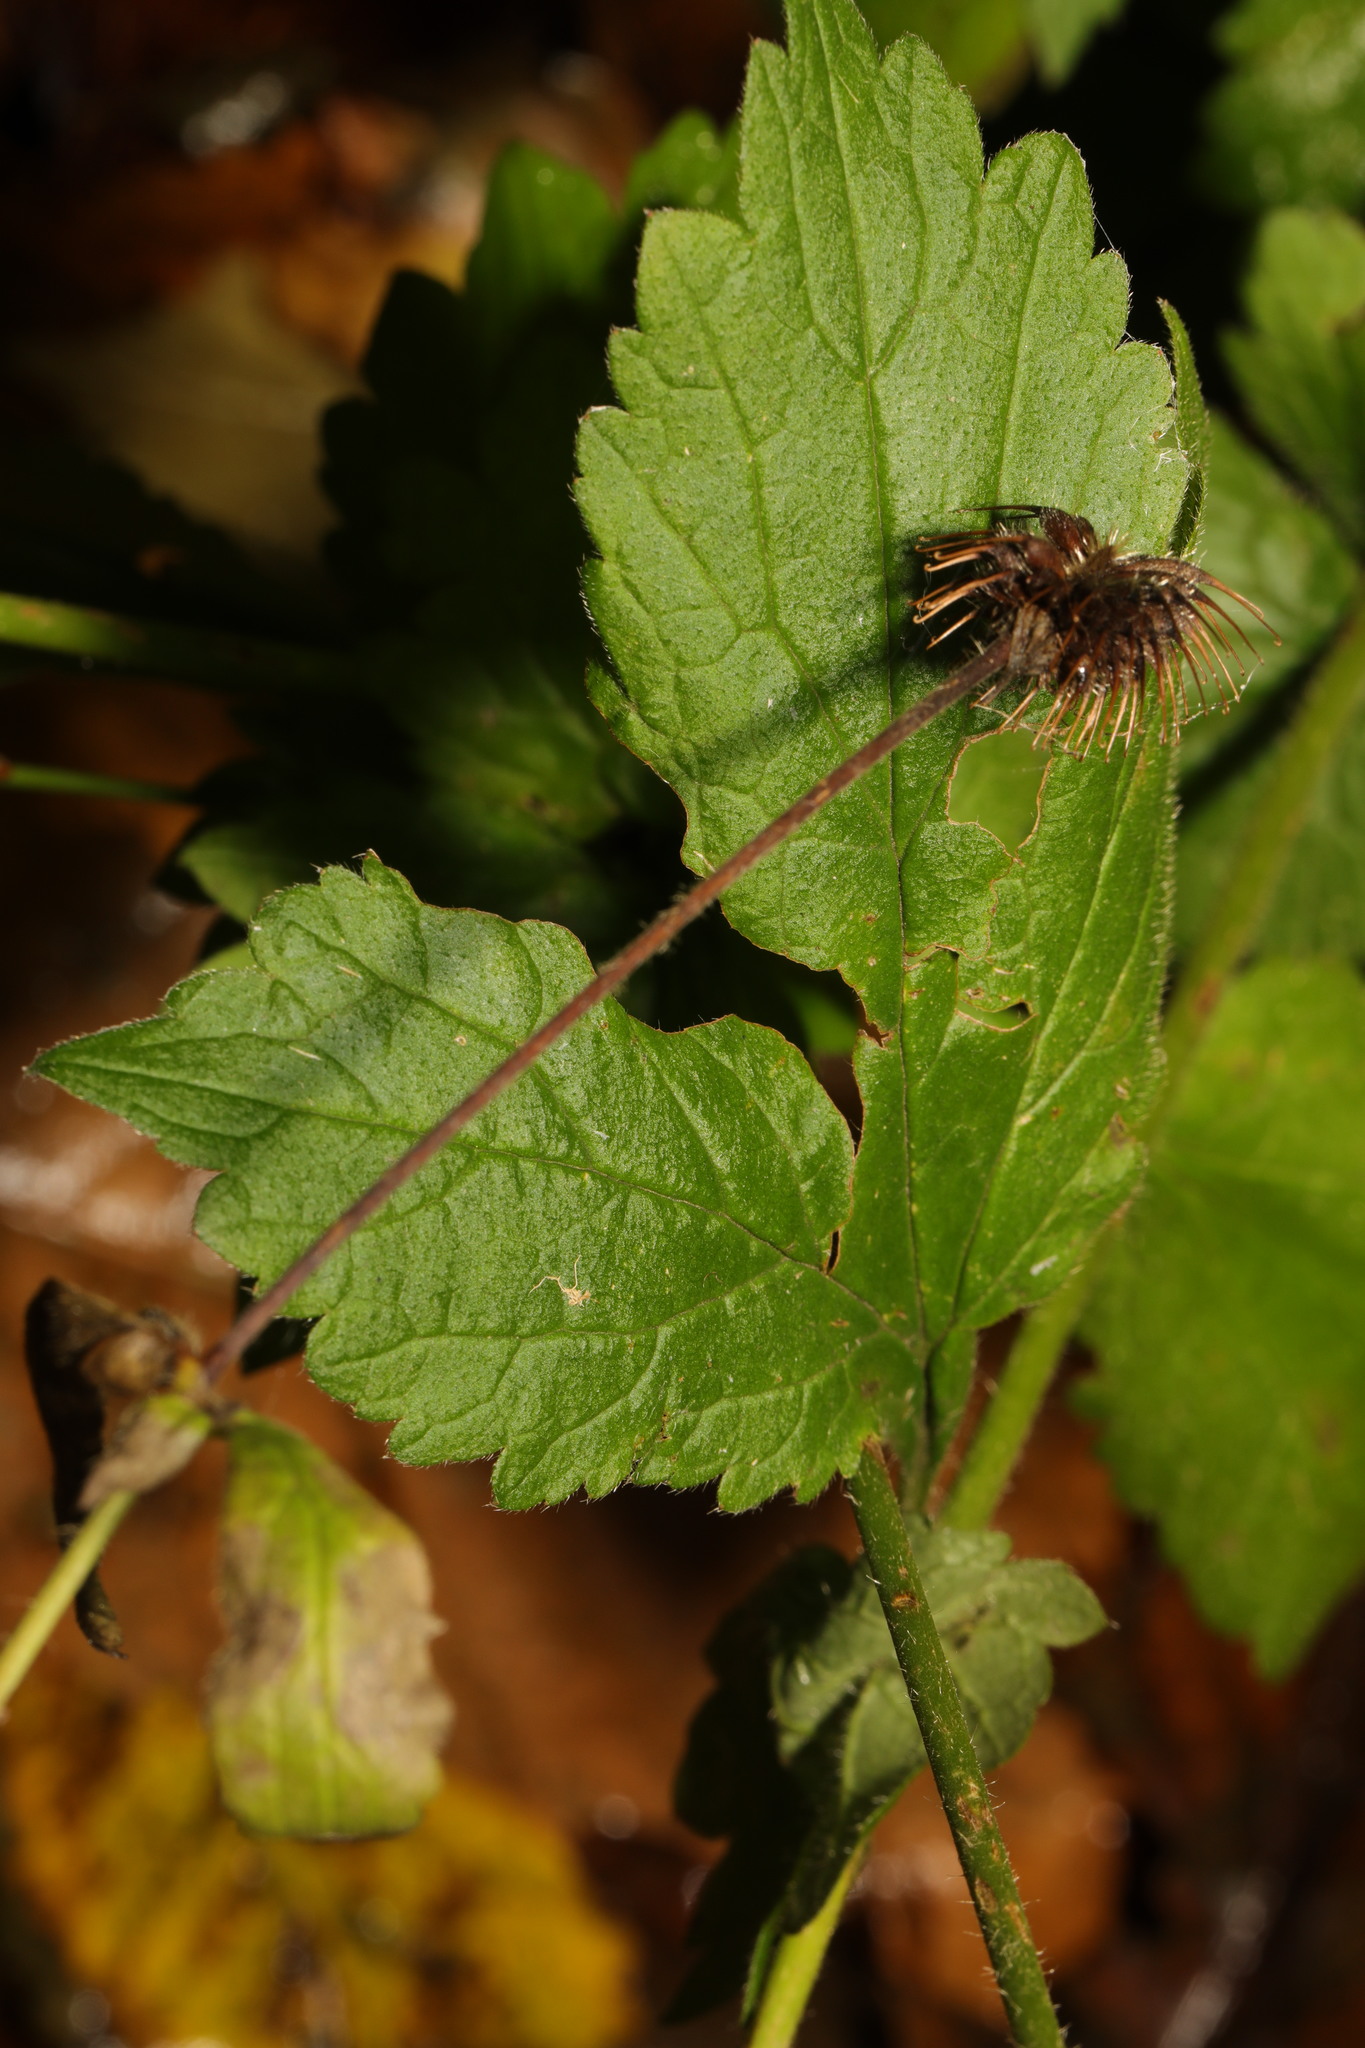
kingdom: Plantae
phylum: Tracheophyta
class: Magnoliopsida
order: Rosales
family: Rosaceae
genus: Geum
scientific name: Geum urbanum
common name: Wood avens
